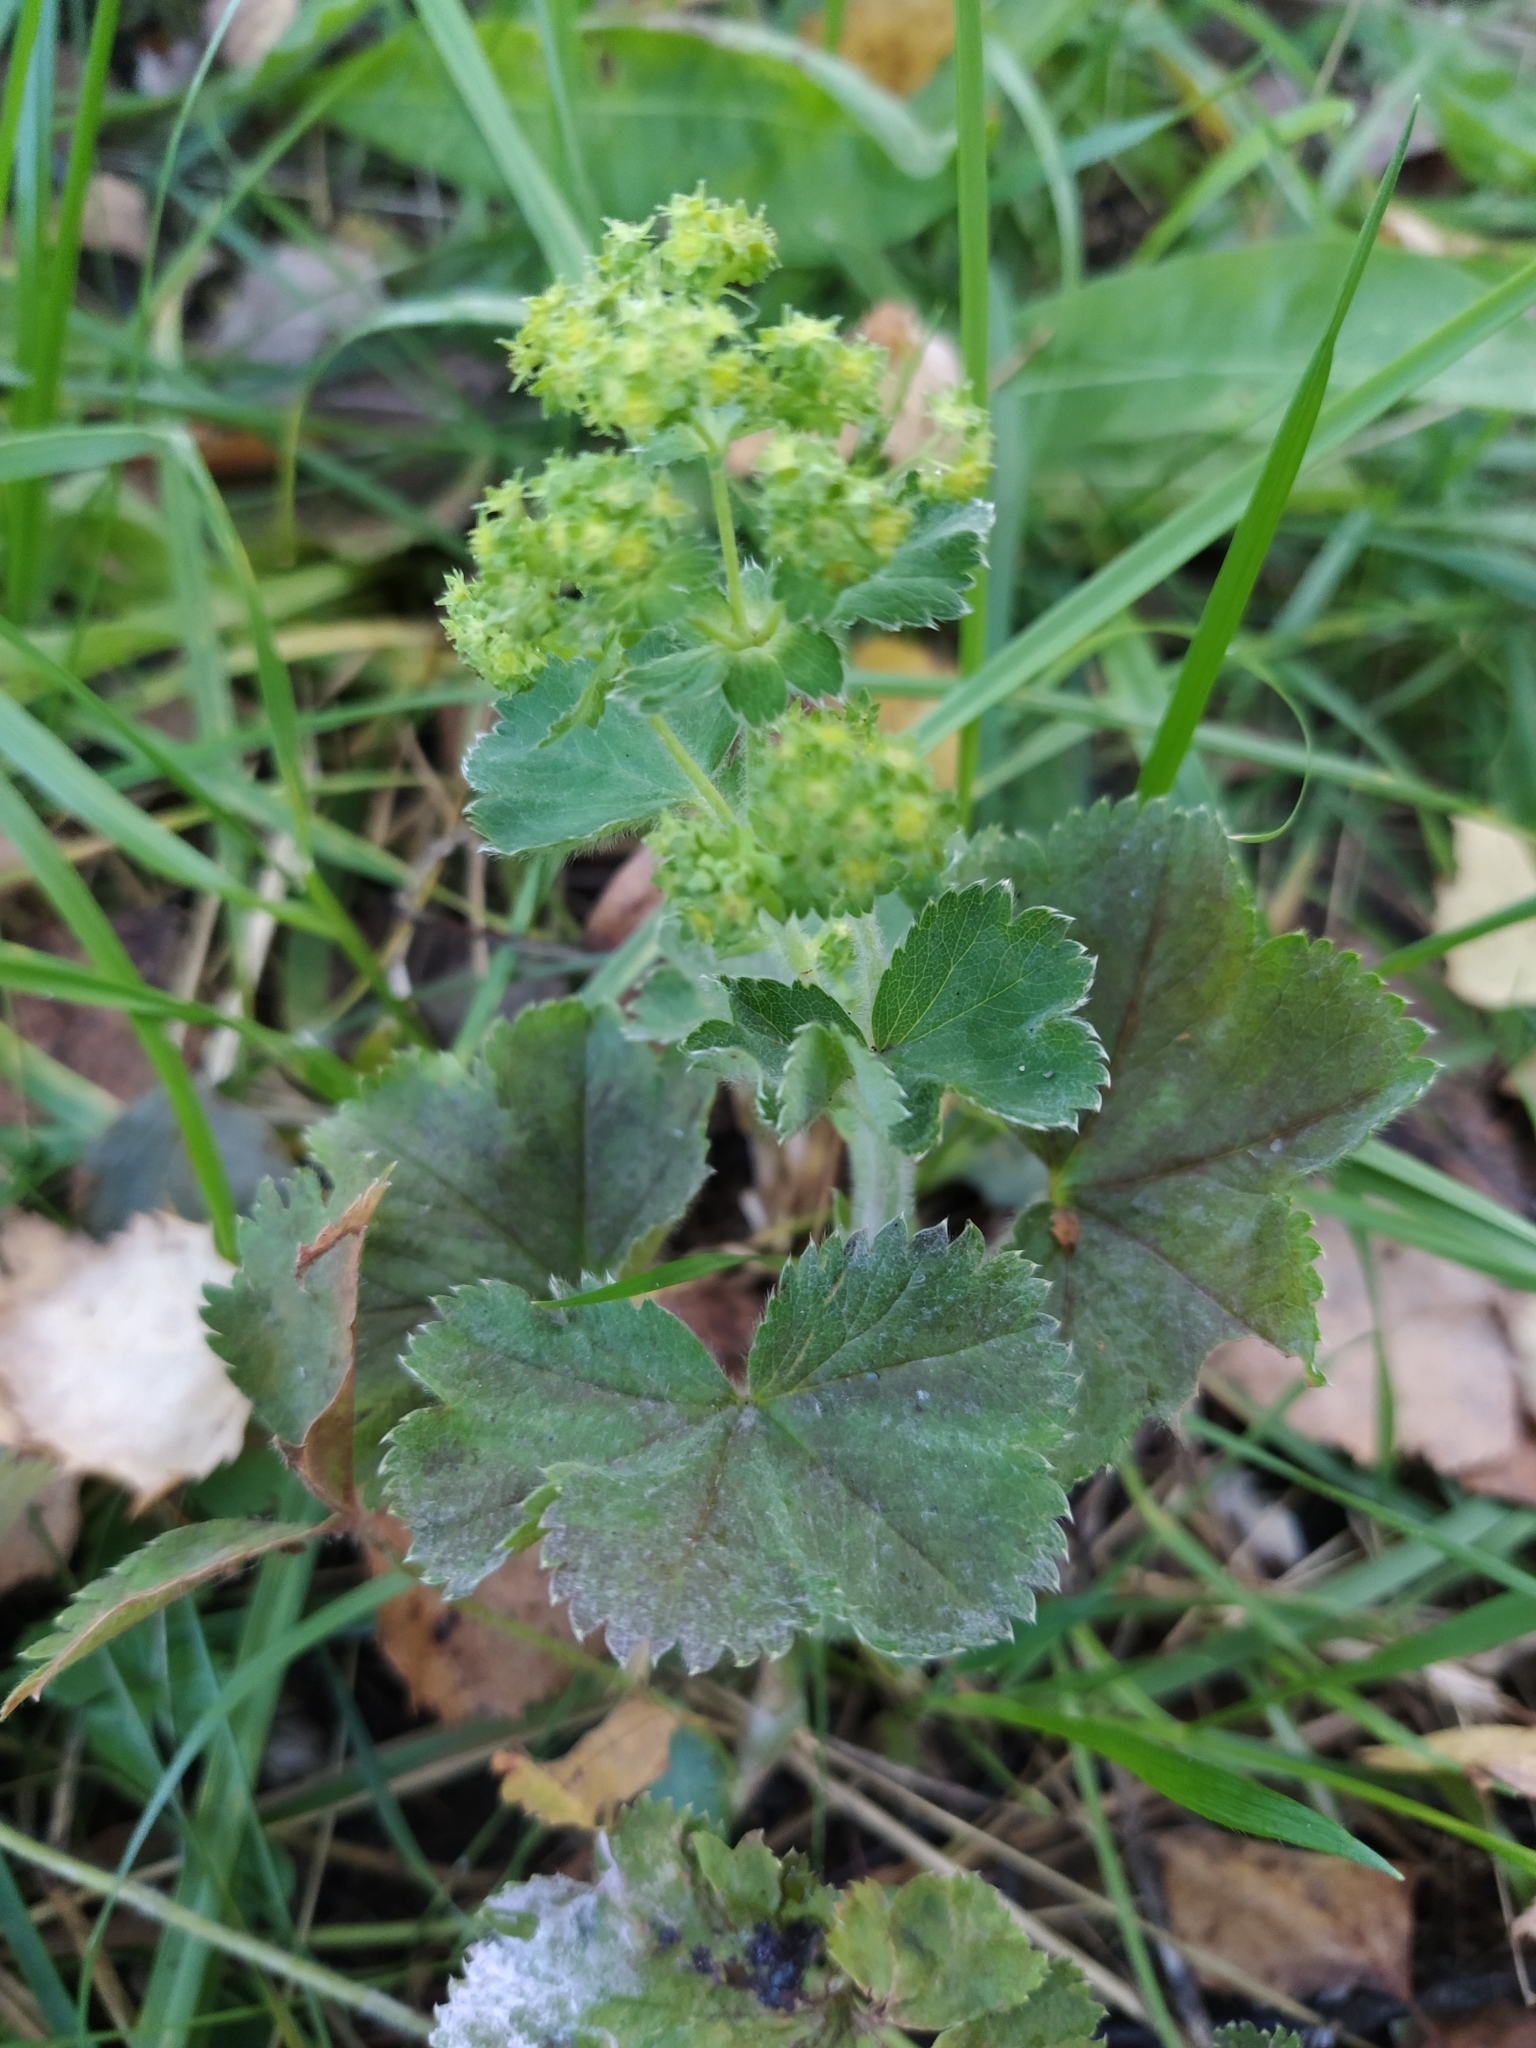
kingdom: Plantae
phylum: Tracheophyta
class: Magnoliopsida
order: Rosales
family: Rosaceae
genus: Alchemilla
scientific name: Alchemilla
